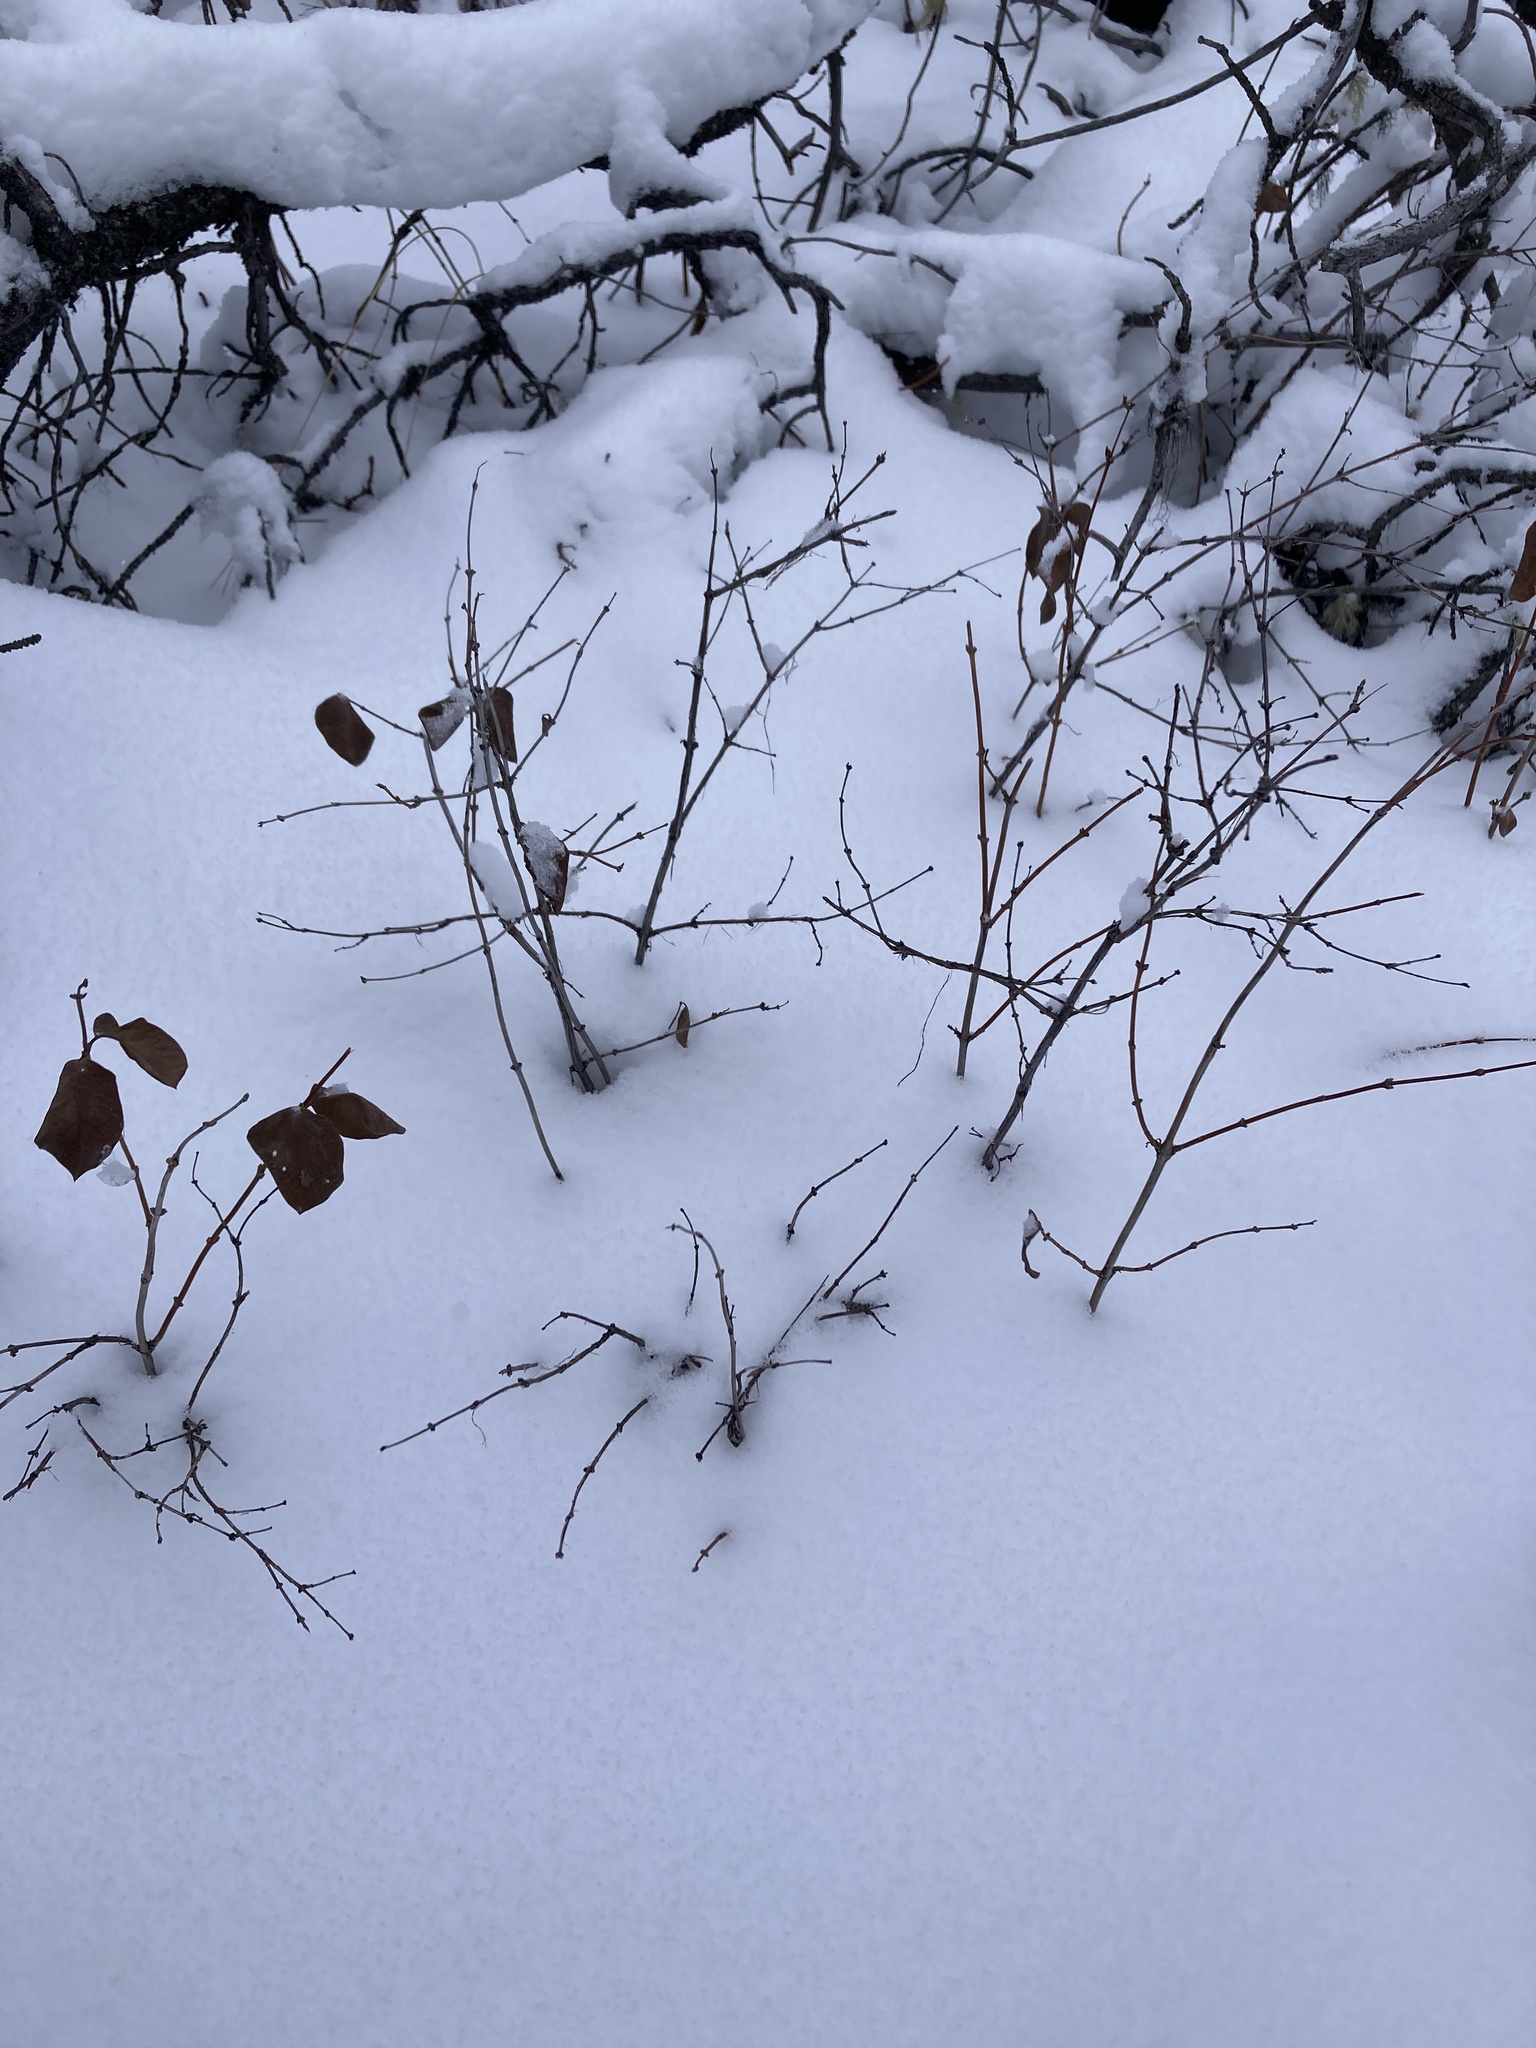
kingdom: Plantae
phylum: Tracheophyta
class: Magnoliopsida
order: Dipsacales
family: Caprifoliaceae
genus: Symphoricarpos
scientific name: Symphoricarpos occidentalis
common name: Wolfberry
